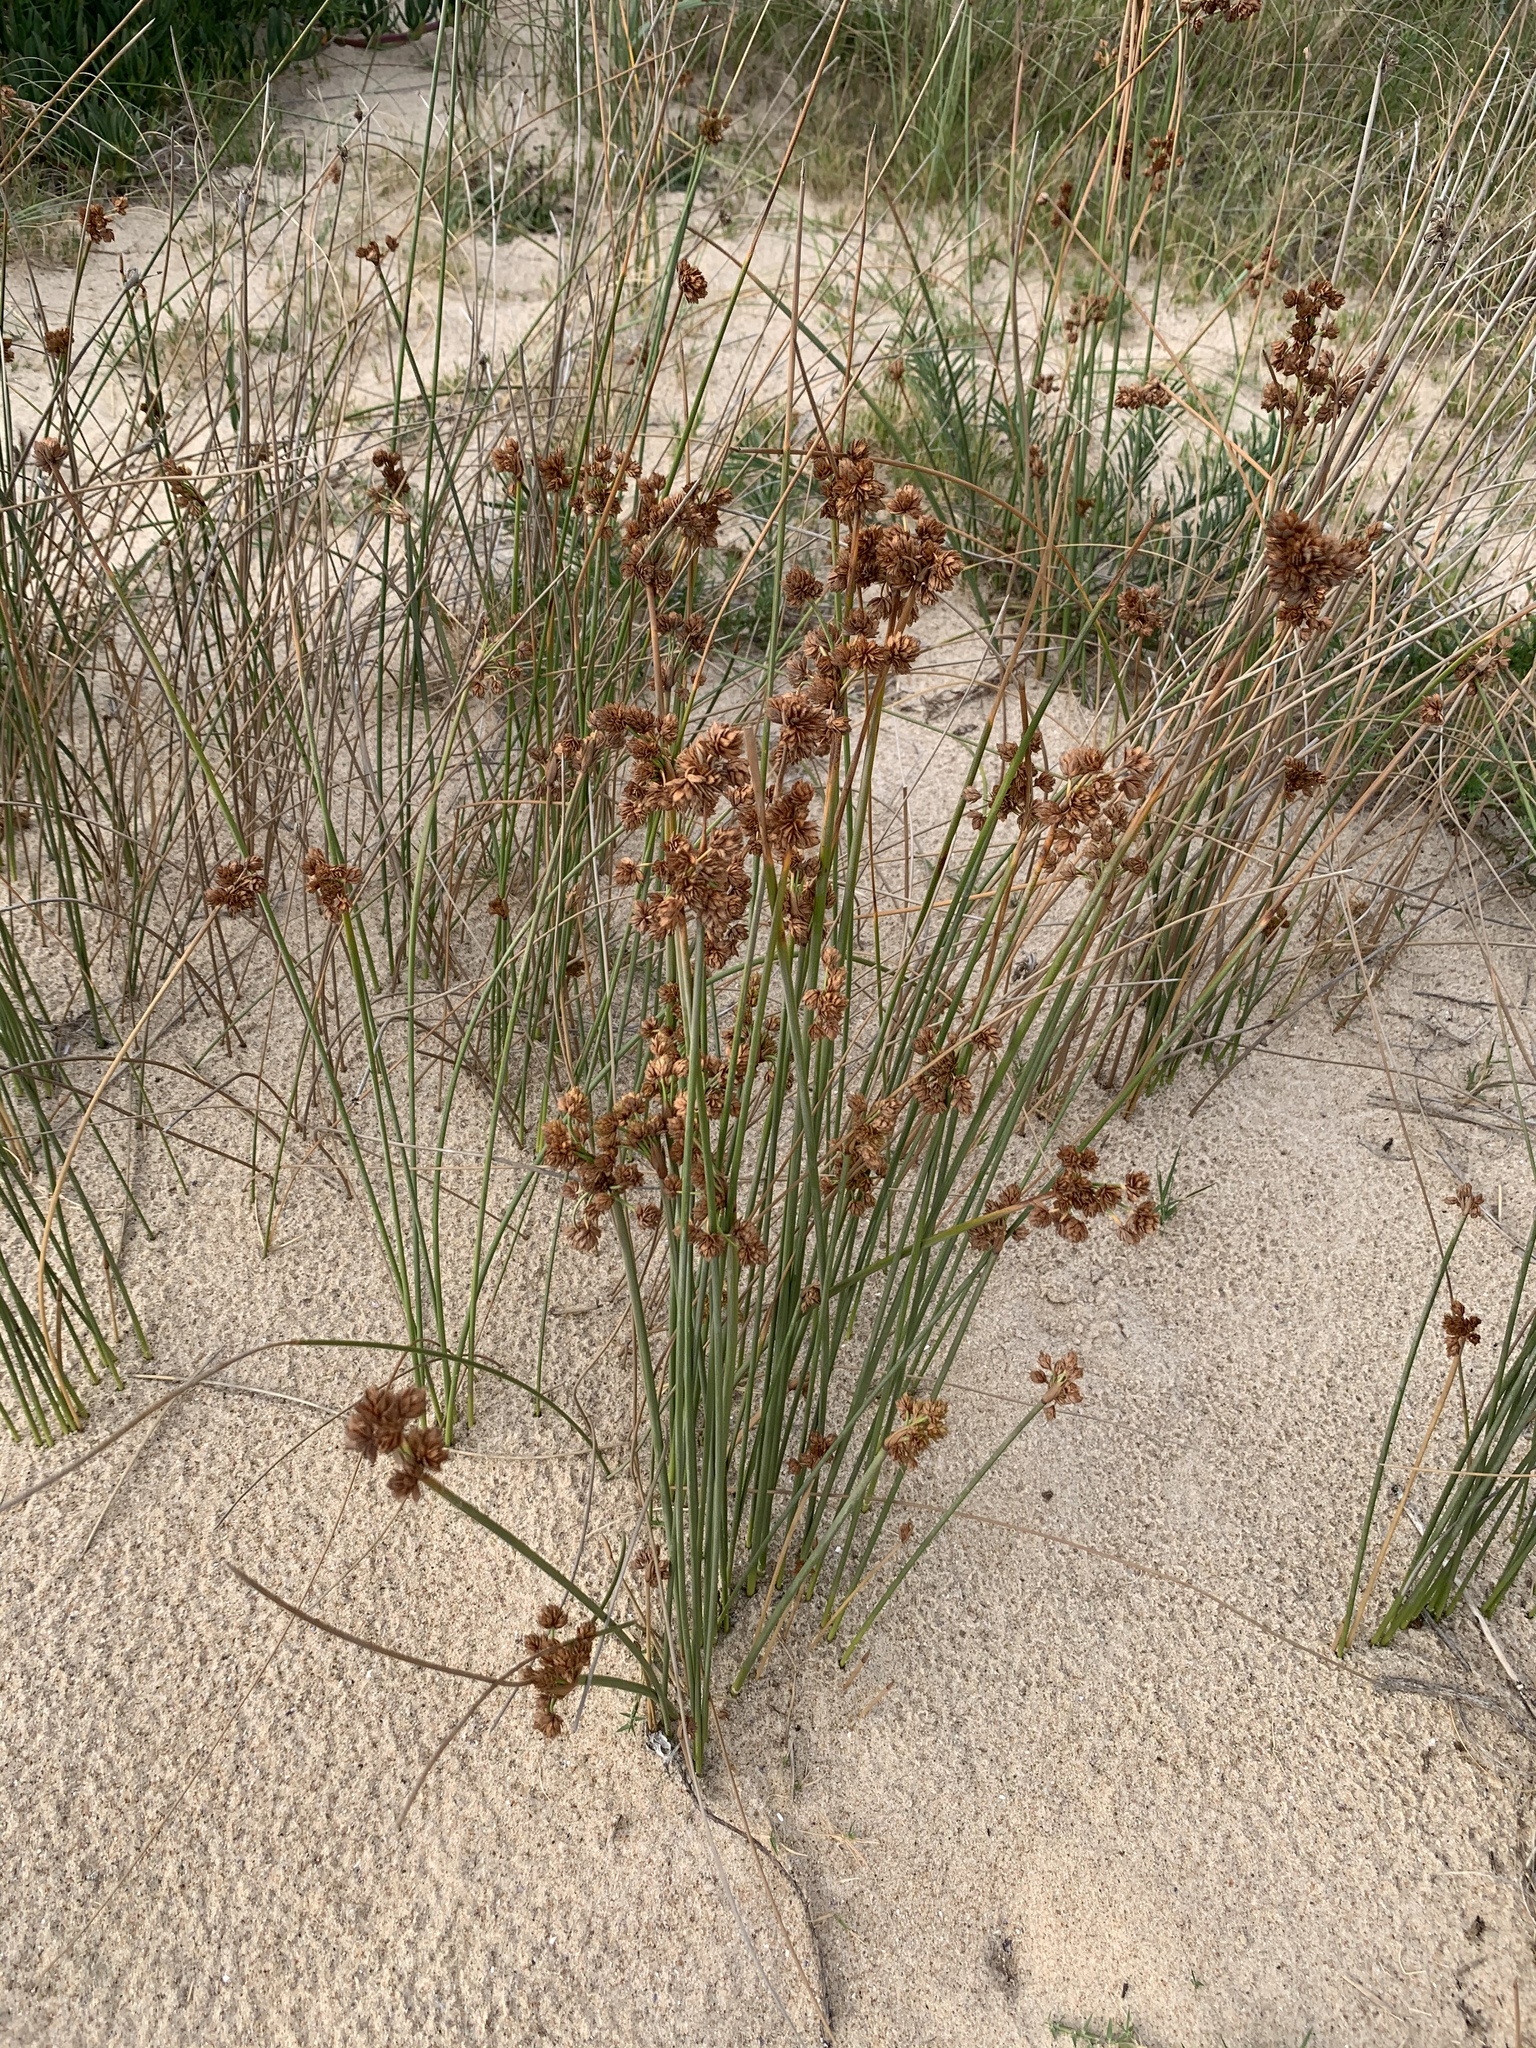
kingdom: Plantae
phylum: Tracheophyta
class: Liliopsida
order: Poales
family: Cyperaceae
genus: Cyperus
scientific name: Cyperus trigynus
